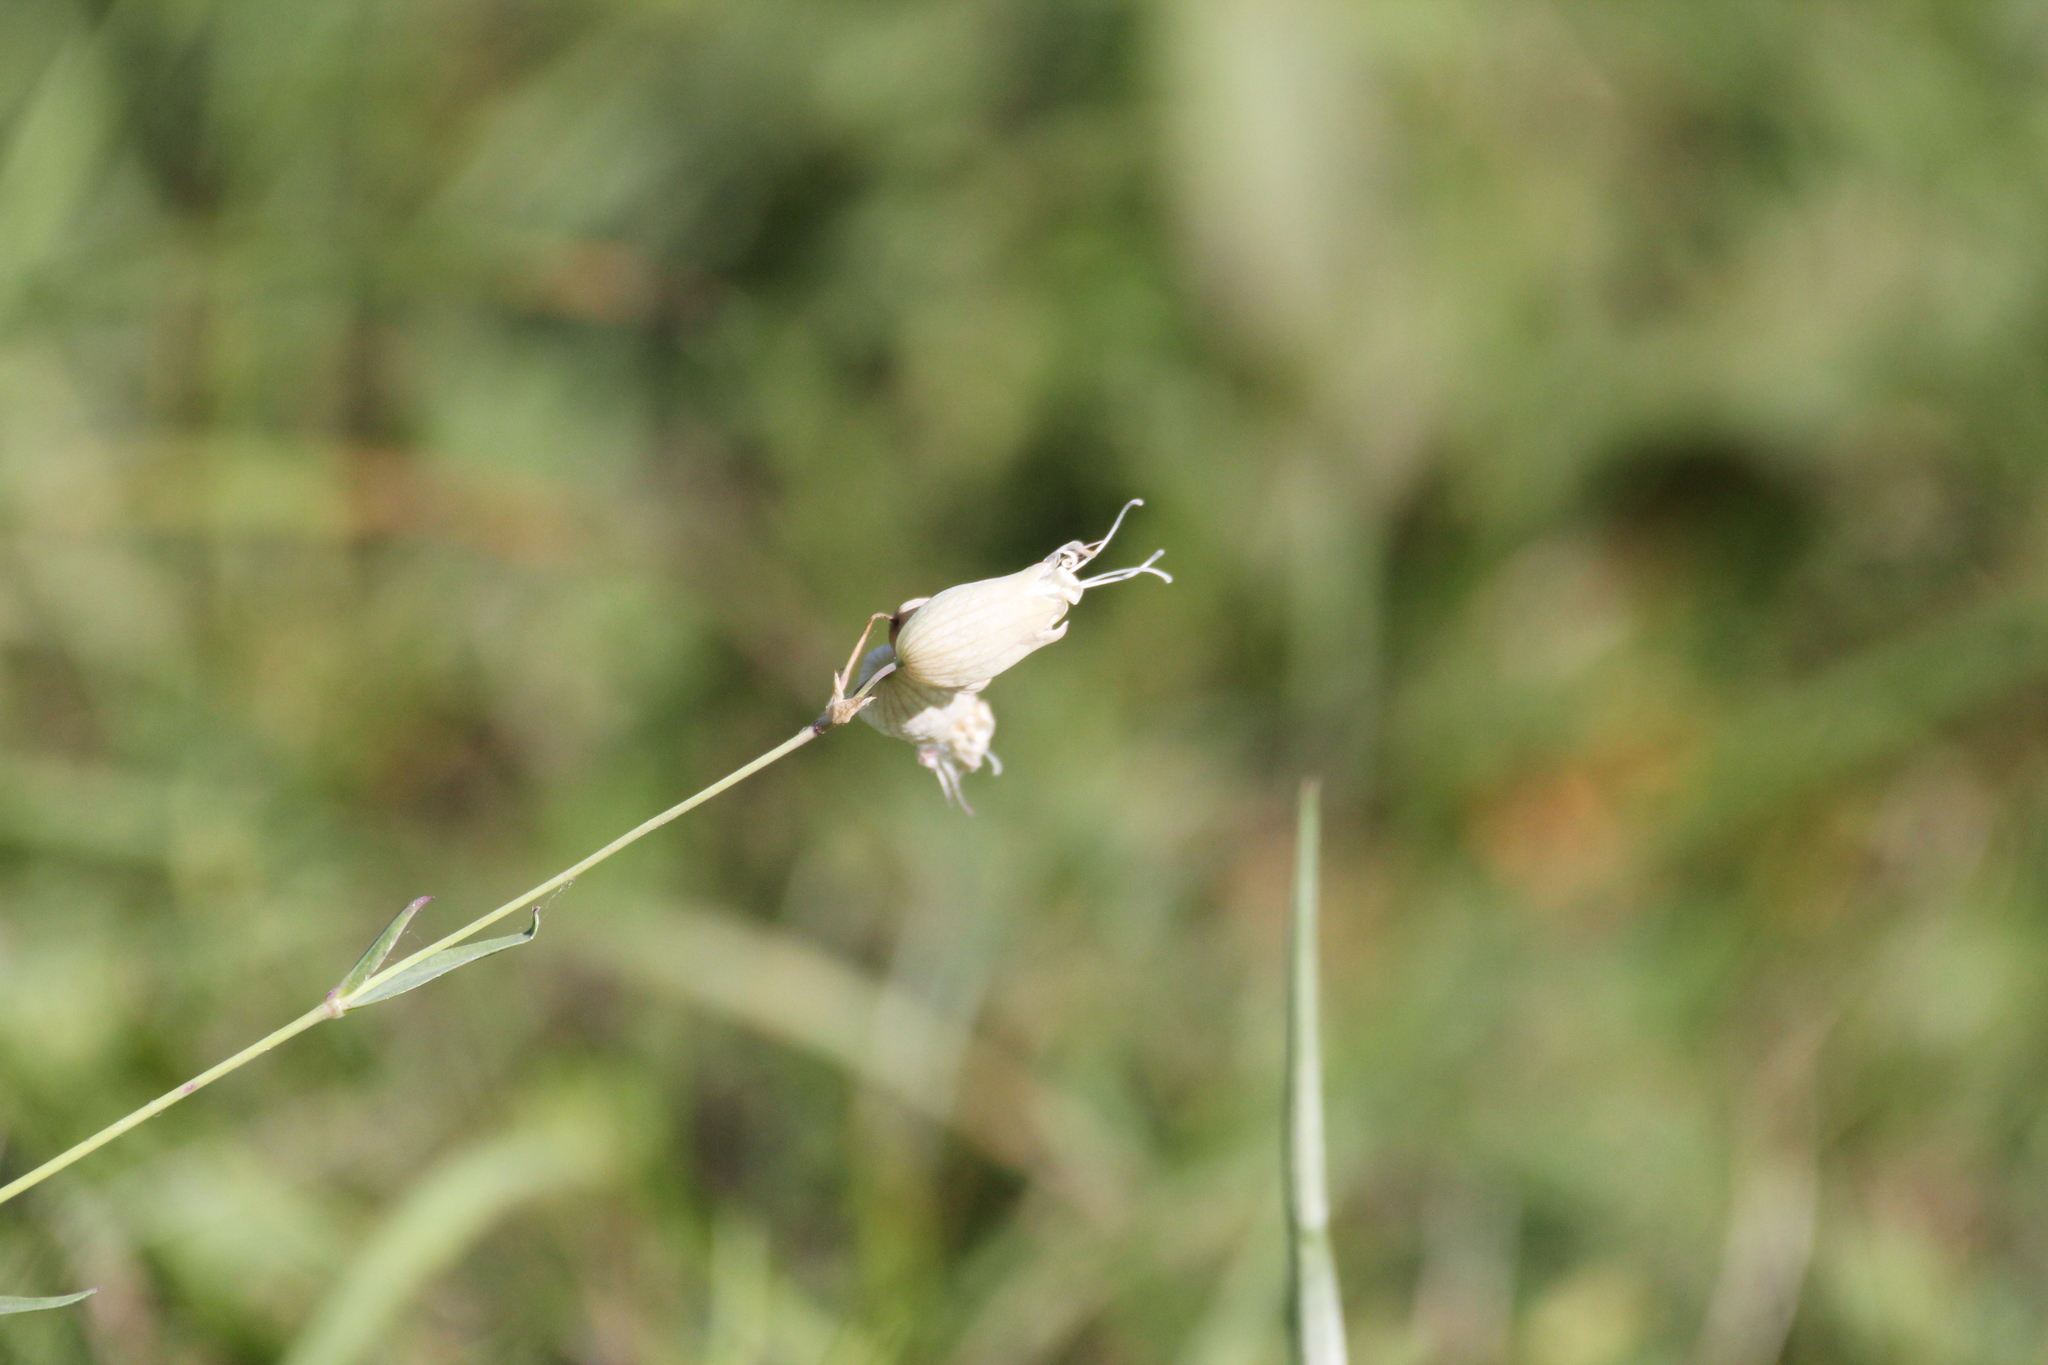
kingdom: Plantae
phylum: Tracheophyta
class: Magnoliopsida
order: Caryophyllales
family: Caryophyllaceae
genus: Silene
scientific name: Silene vulgaris
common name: Bladder campion
